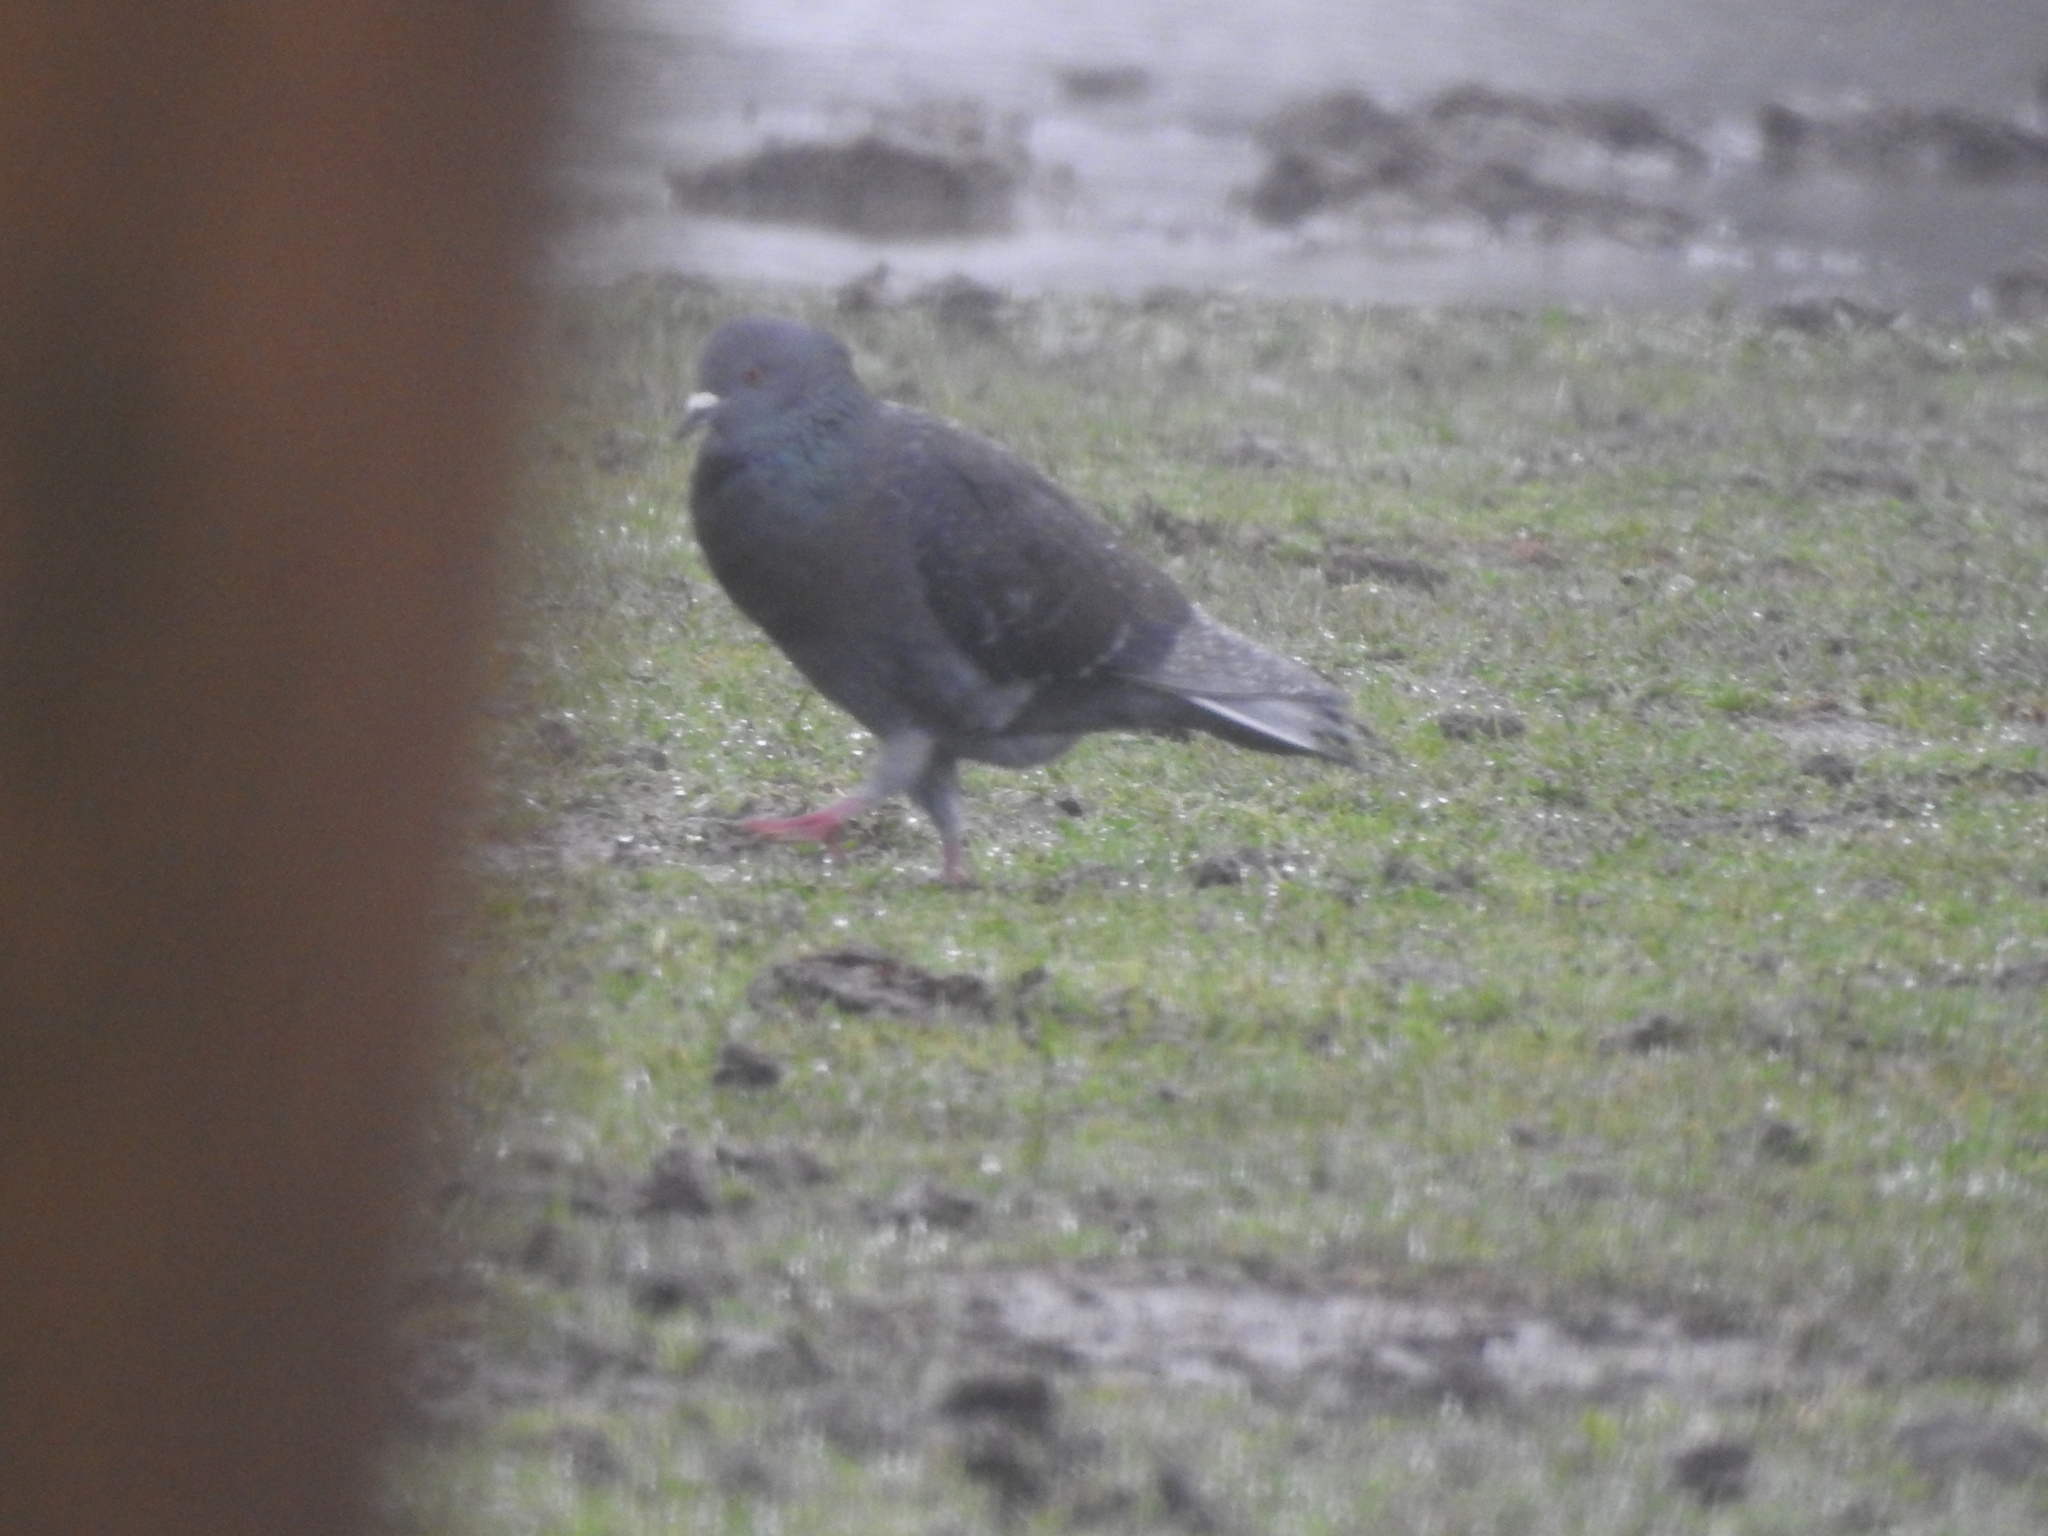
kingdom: Animalia
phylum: Chordata
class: Aves
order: Columbiformes
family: Columbidae
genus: Columba
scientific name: Columba livia
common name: Rock pigeon
